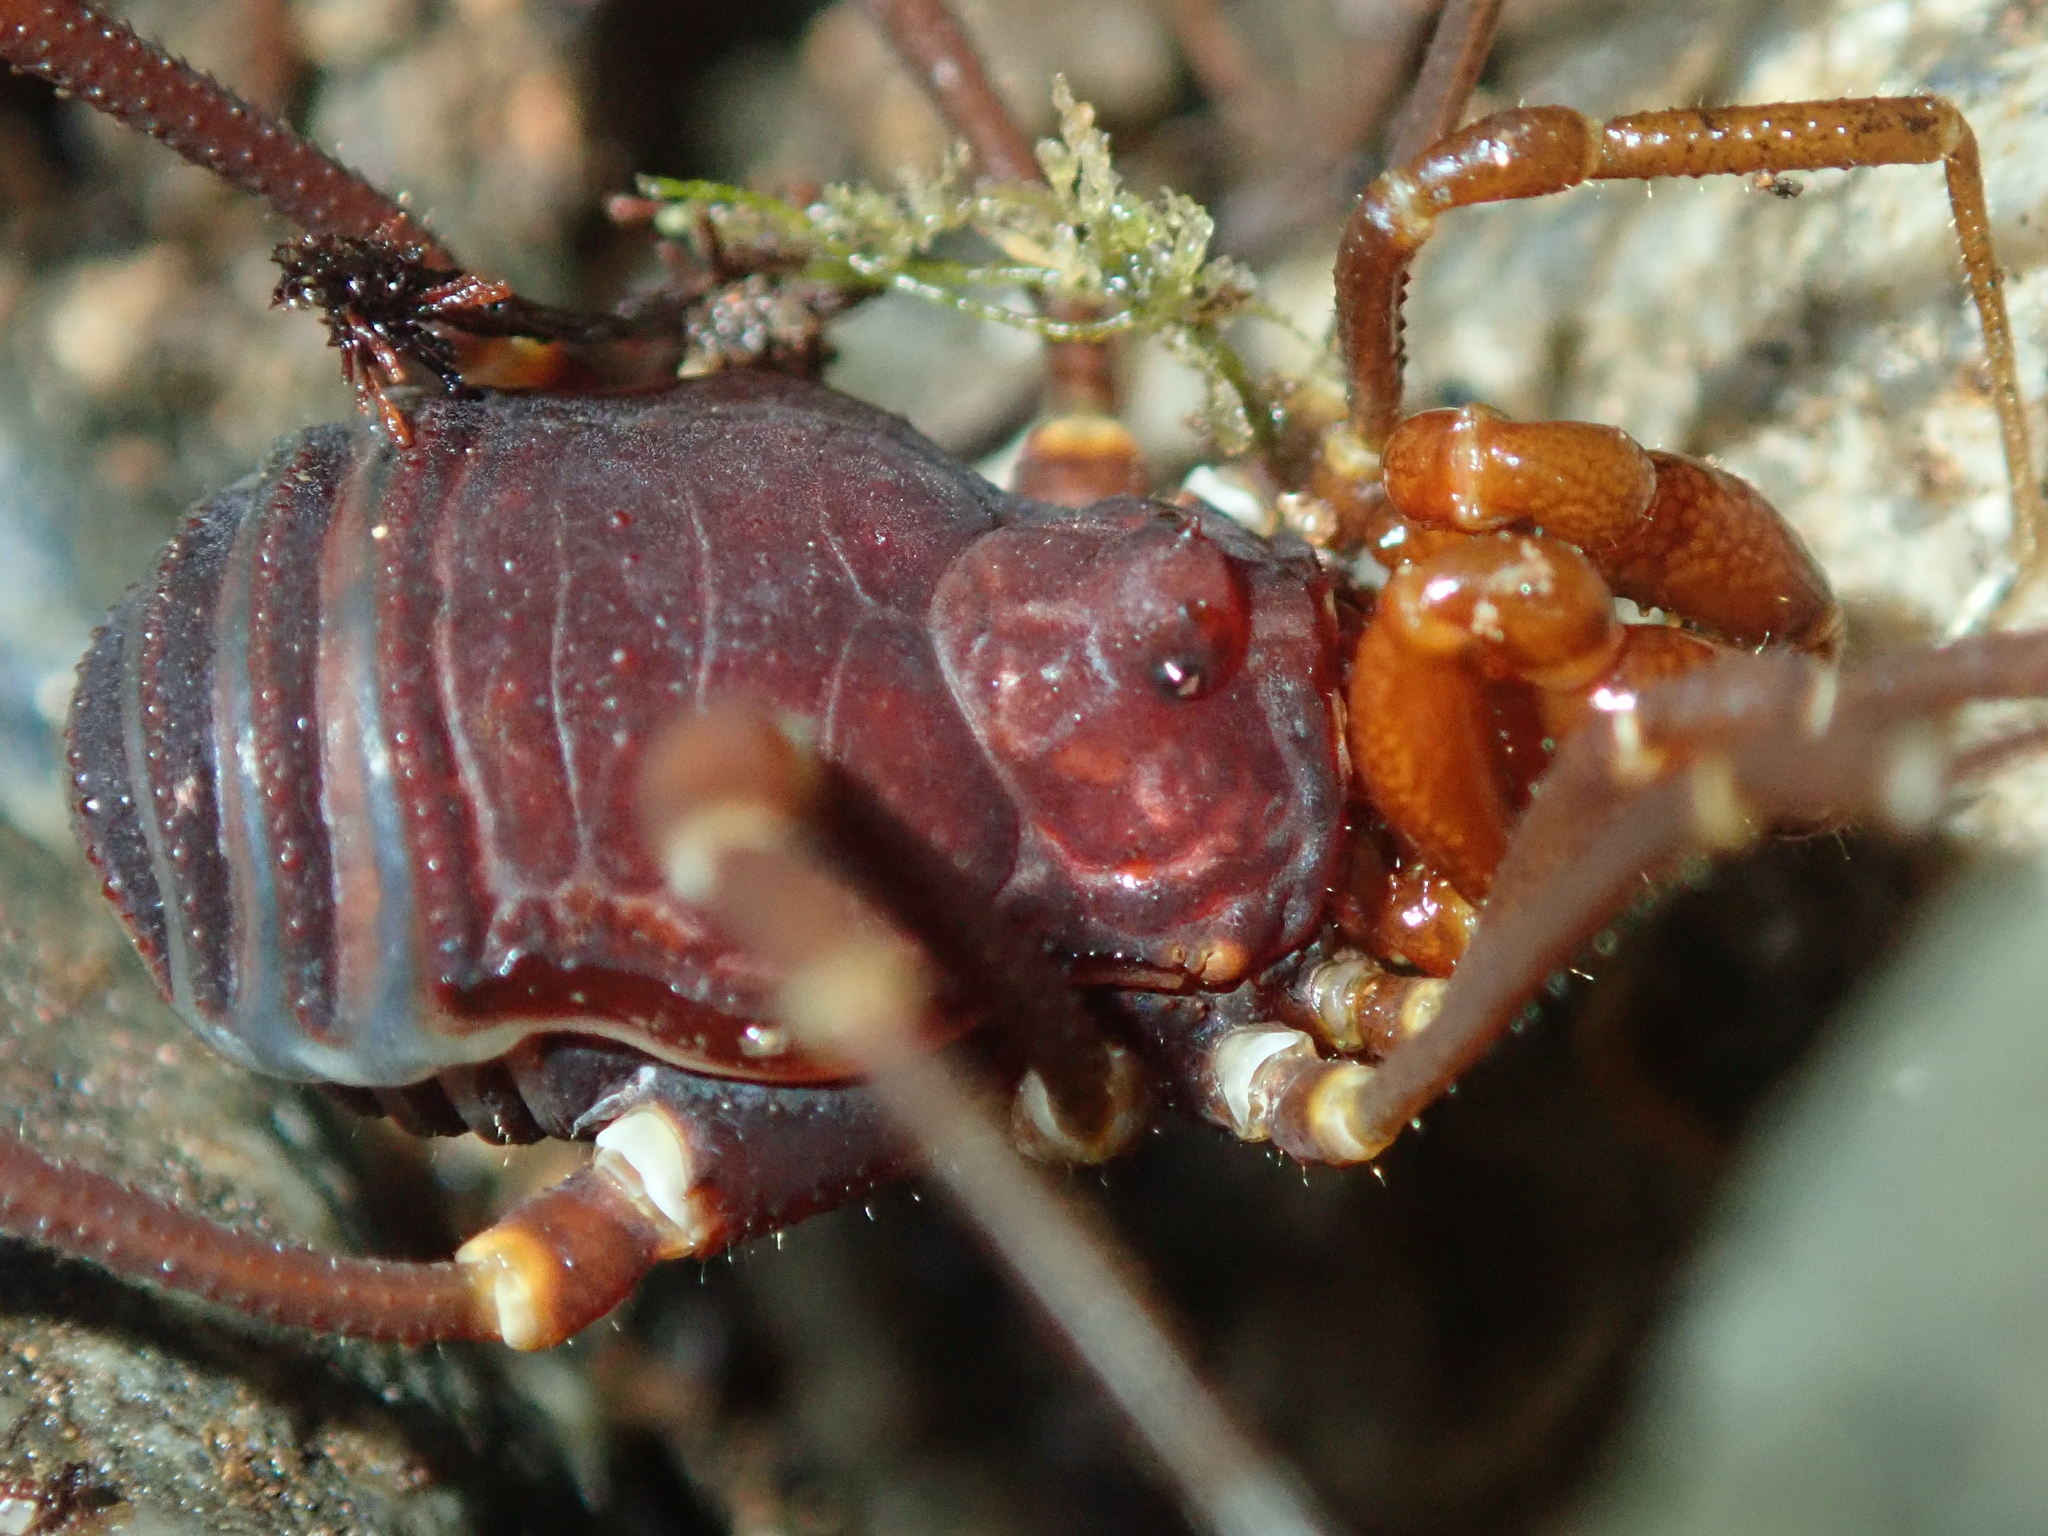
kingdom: Animalia
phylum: Arthropoda
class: Arachnida
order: Opiliones
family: Gonyleptidae
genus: Planiphalangodus
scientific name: Planiphalangodus robustus
